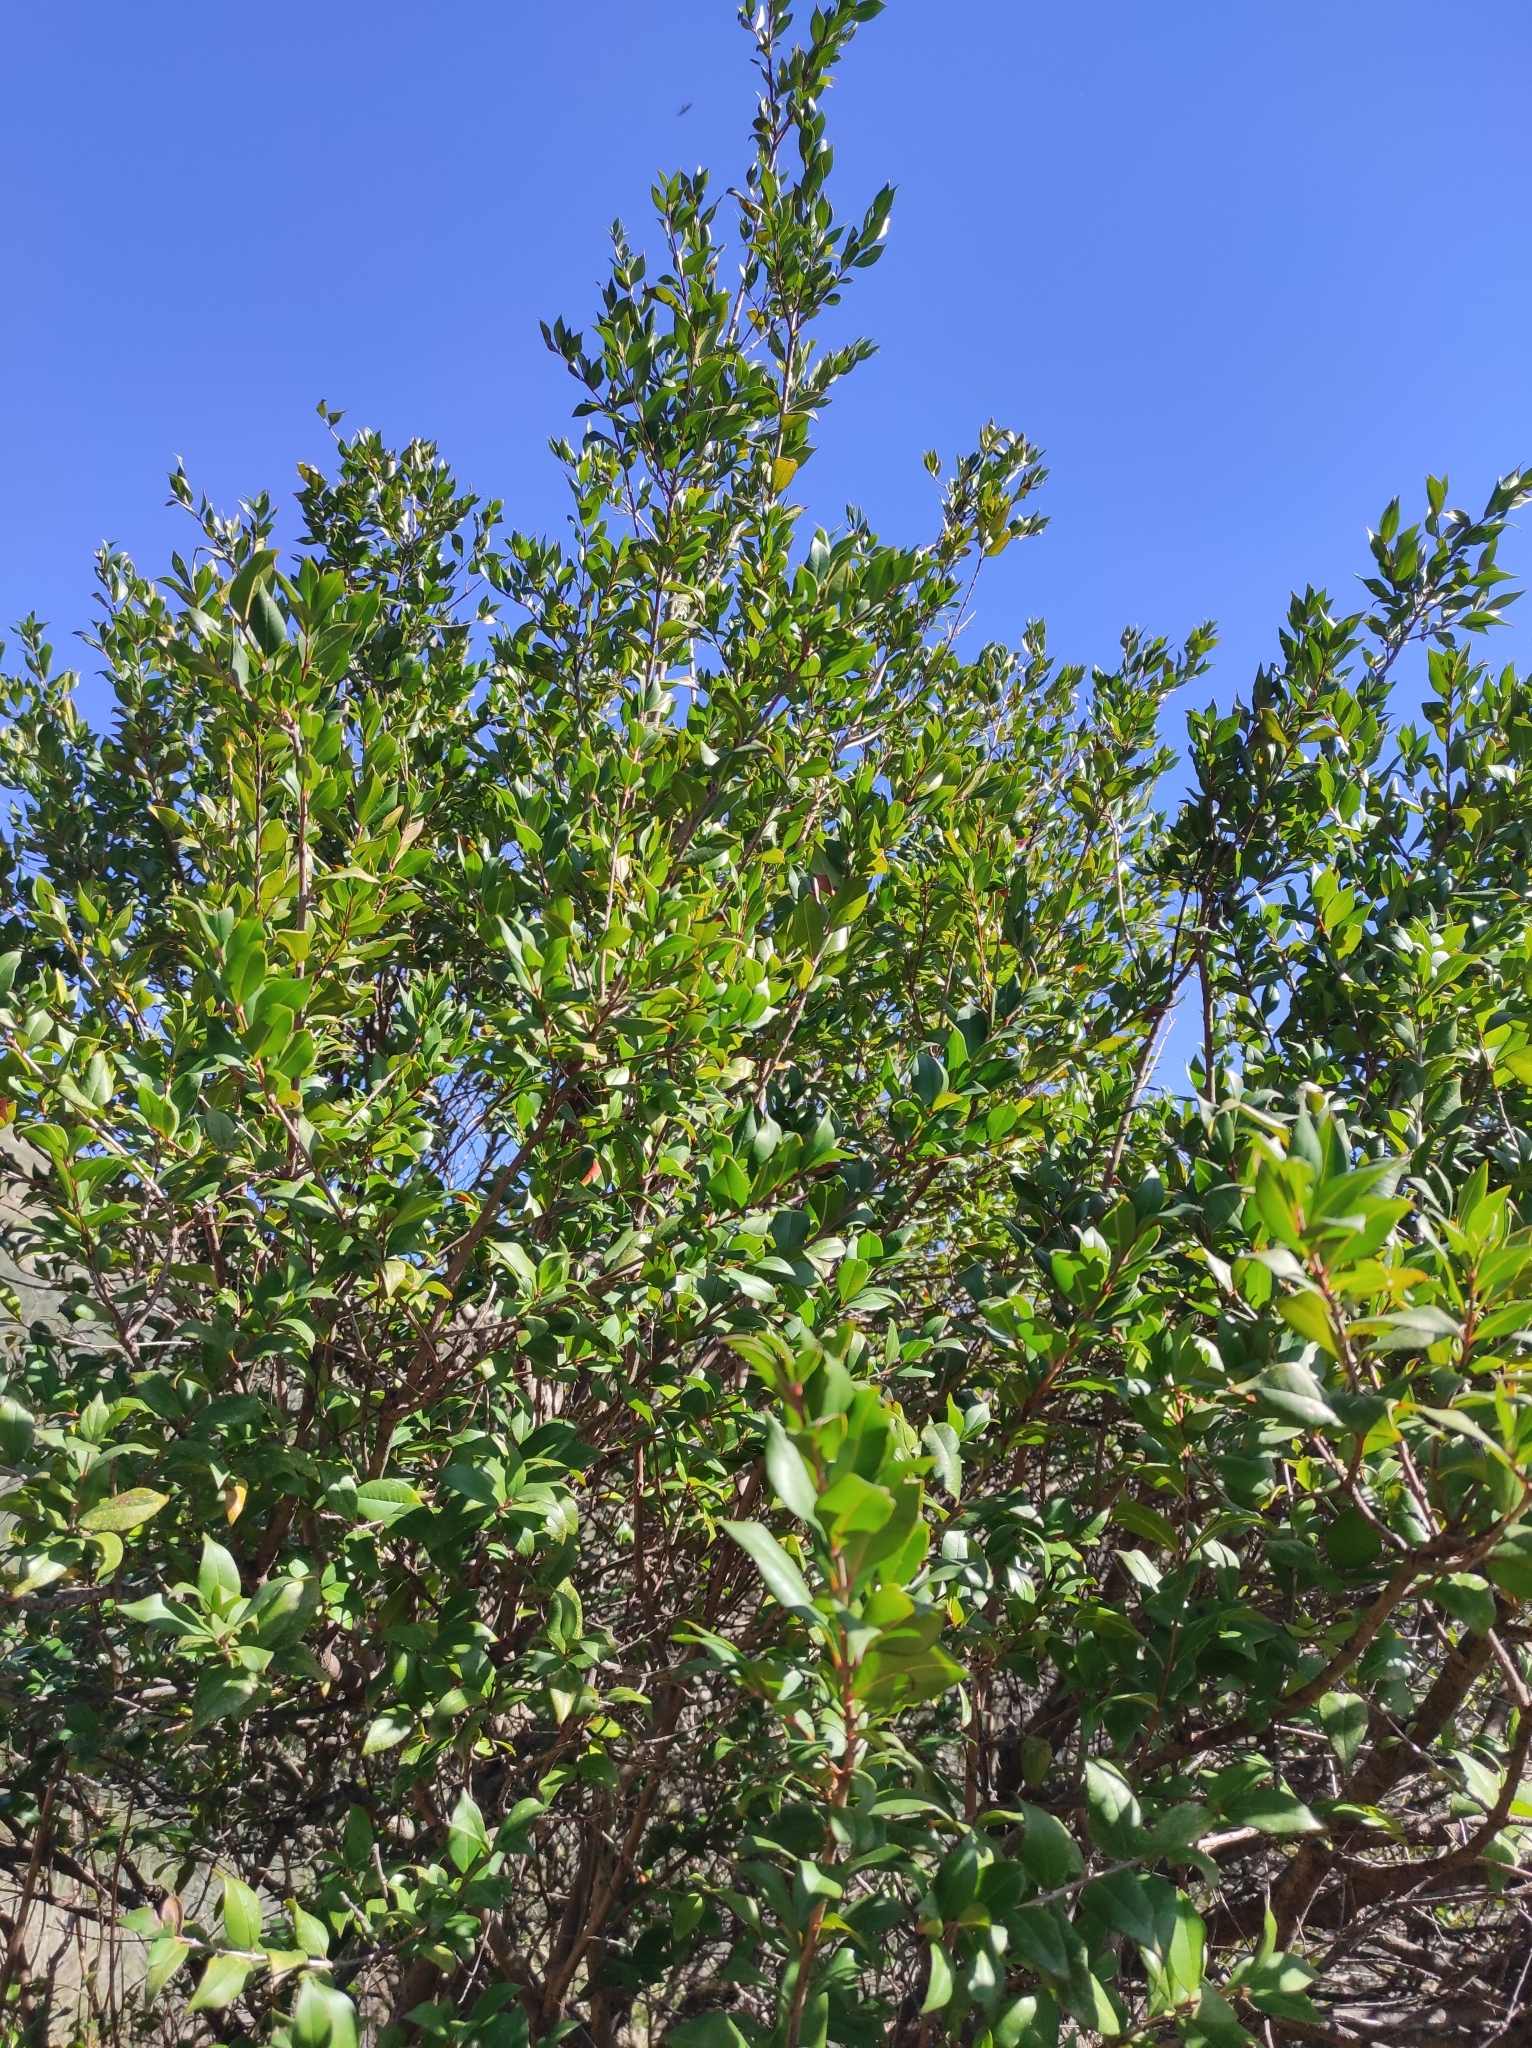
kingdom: Plantae
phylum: Tracheophyta
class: Magnoliopsida
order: Myrtales
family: Myrtaceae
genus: Myrtus
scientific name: Myrtus communis
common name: Myrtle
